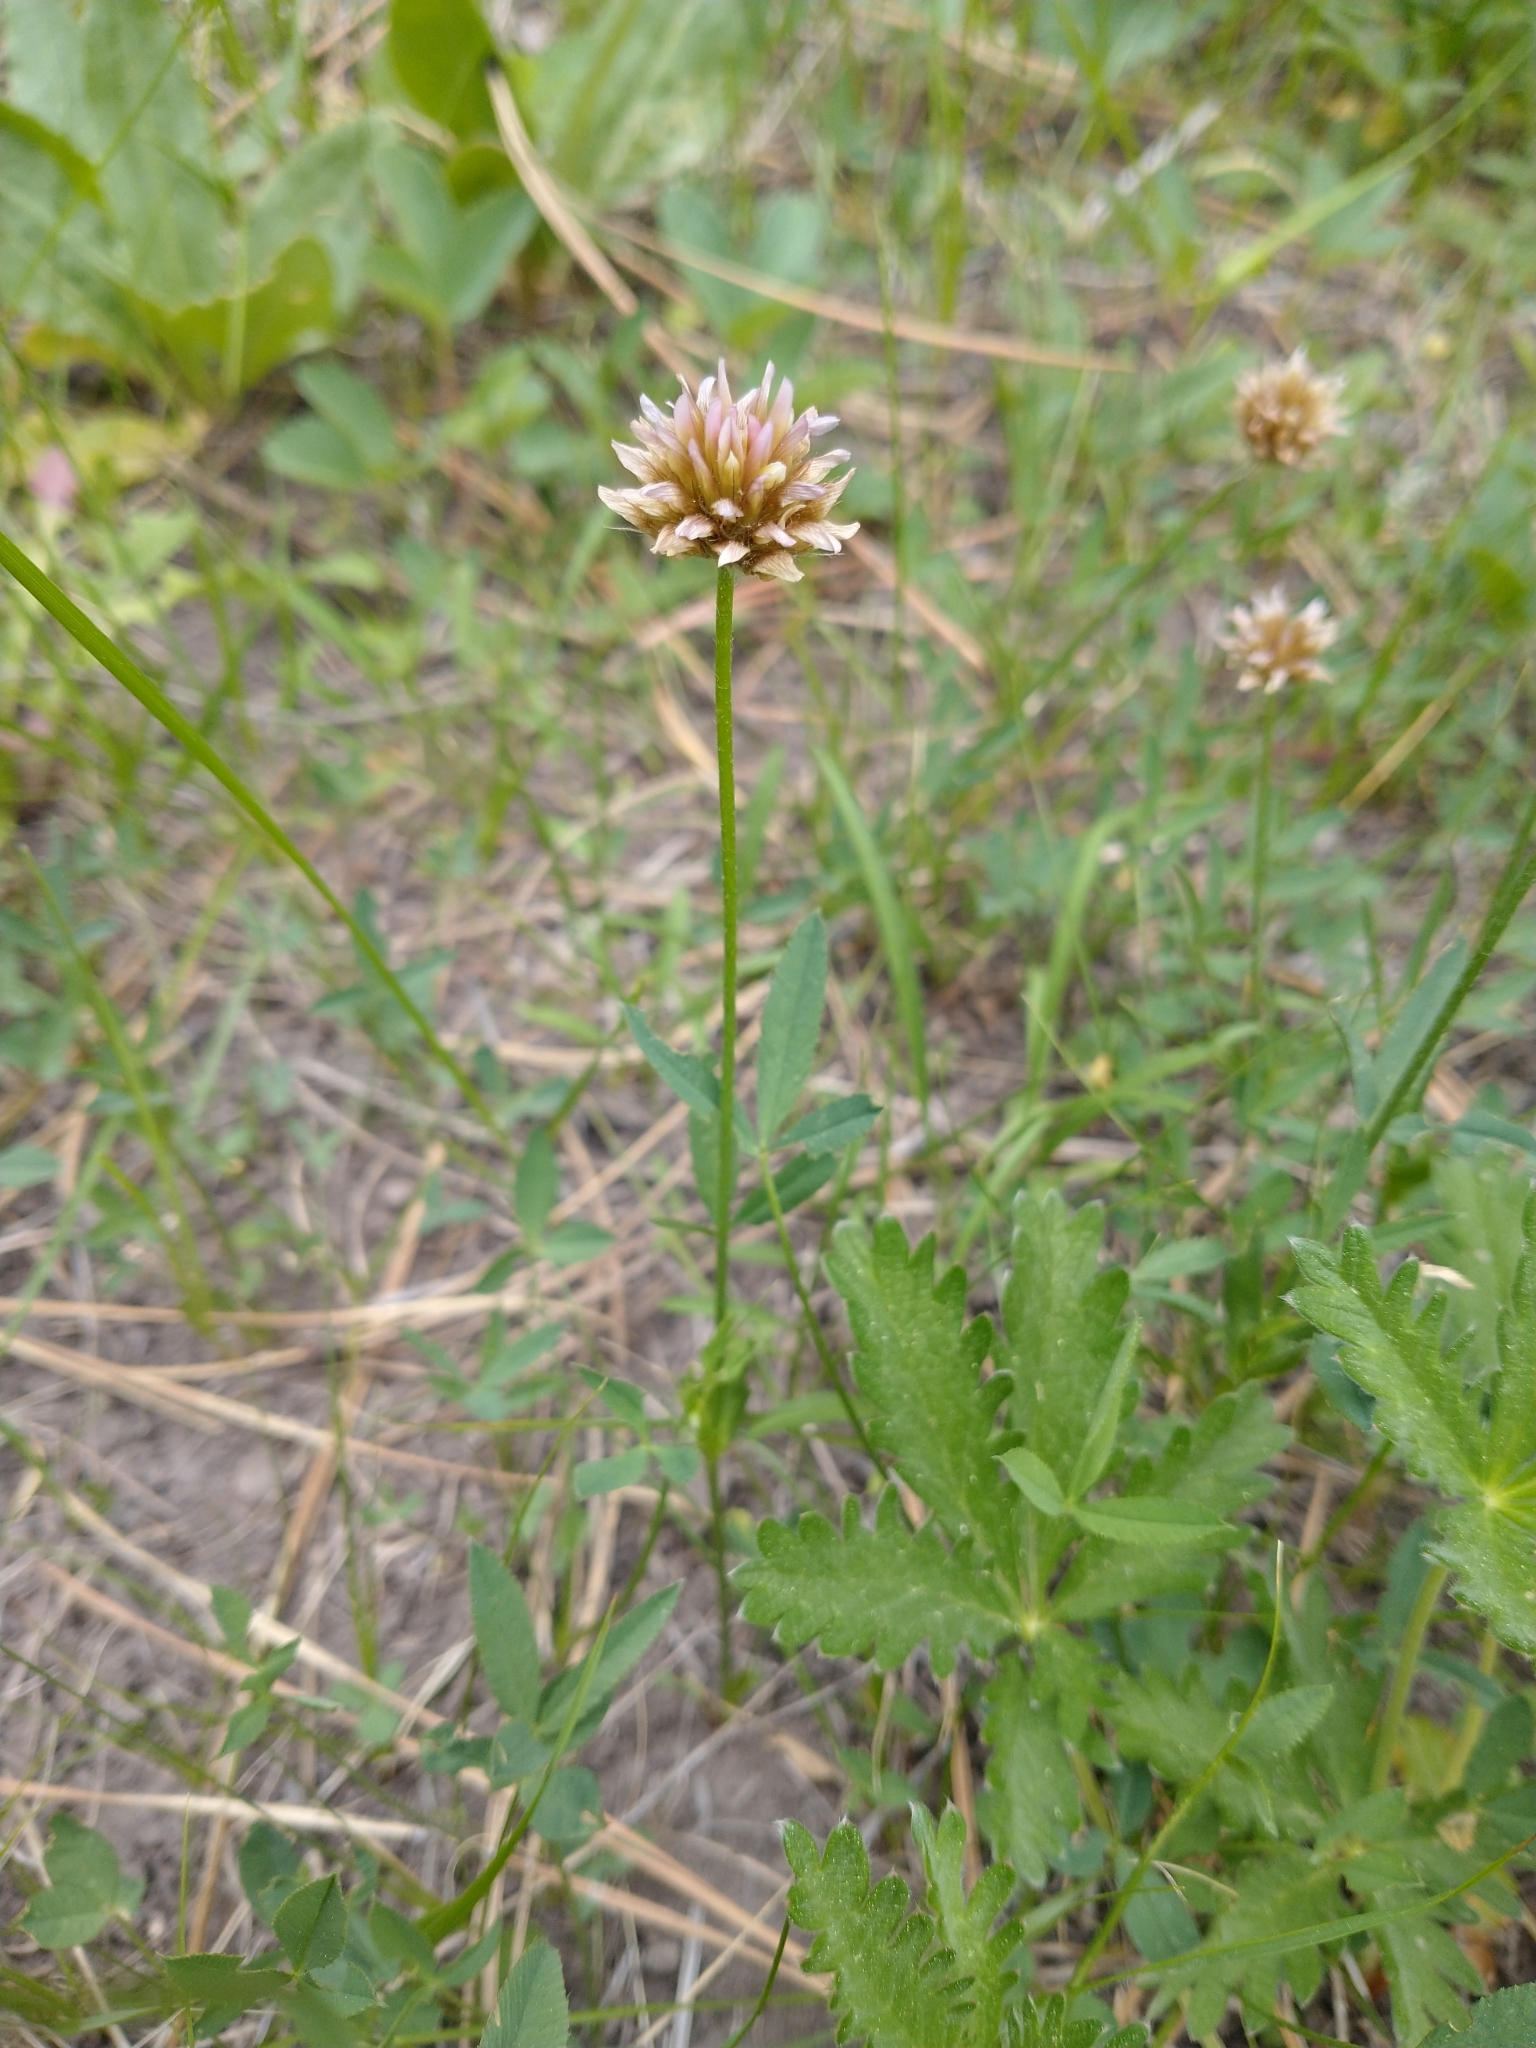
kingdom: Plantae
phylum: Tracheophyta
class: Magnoliopsida
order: Fabales
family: Fabaceae
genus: Trifolium
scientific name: Trifolium longipes
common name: Long-stalk clover
